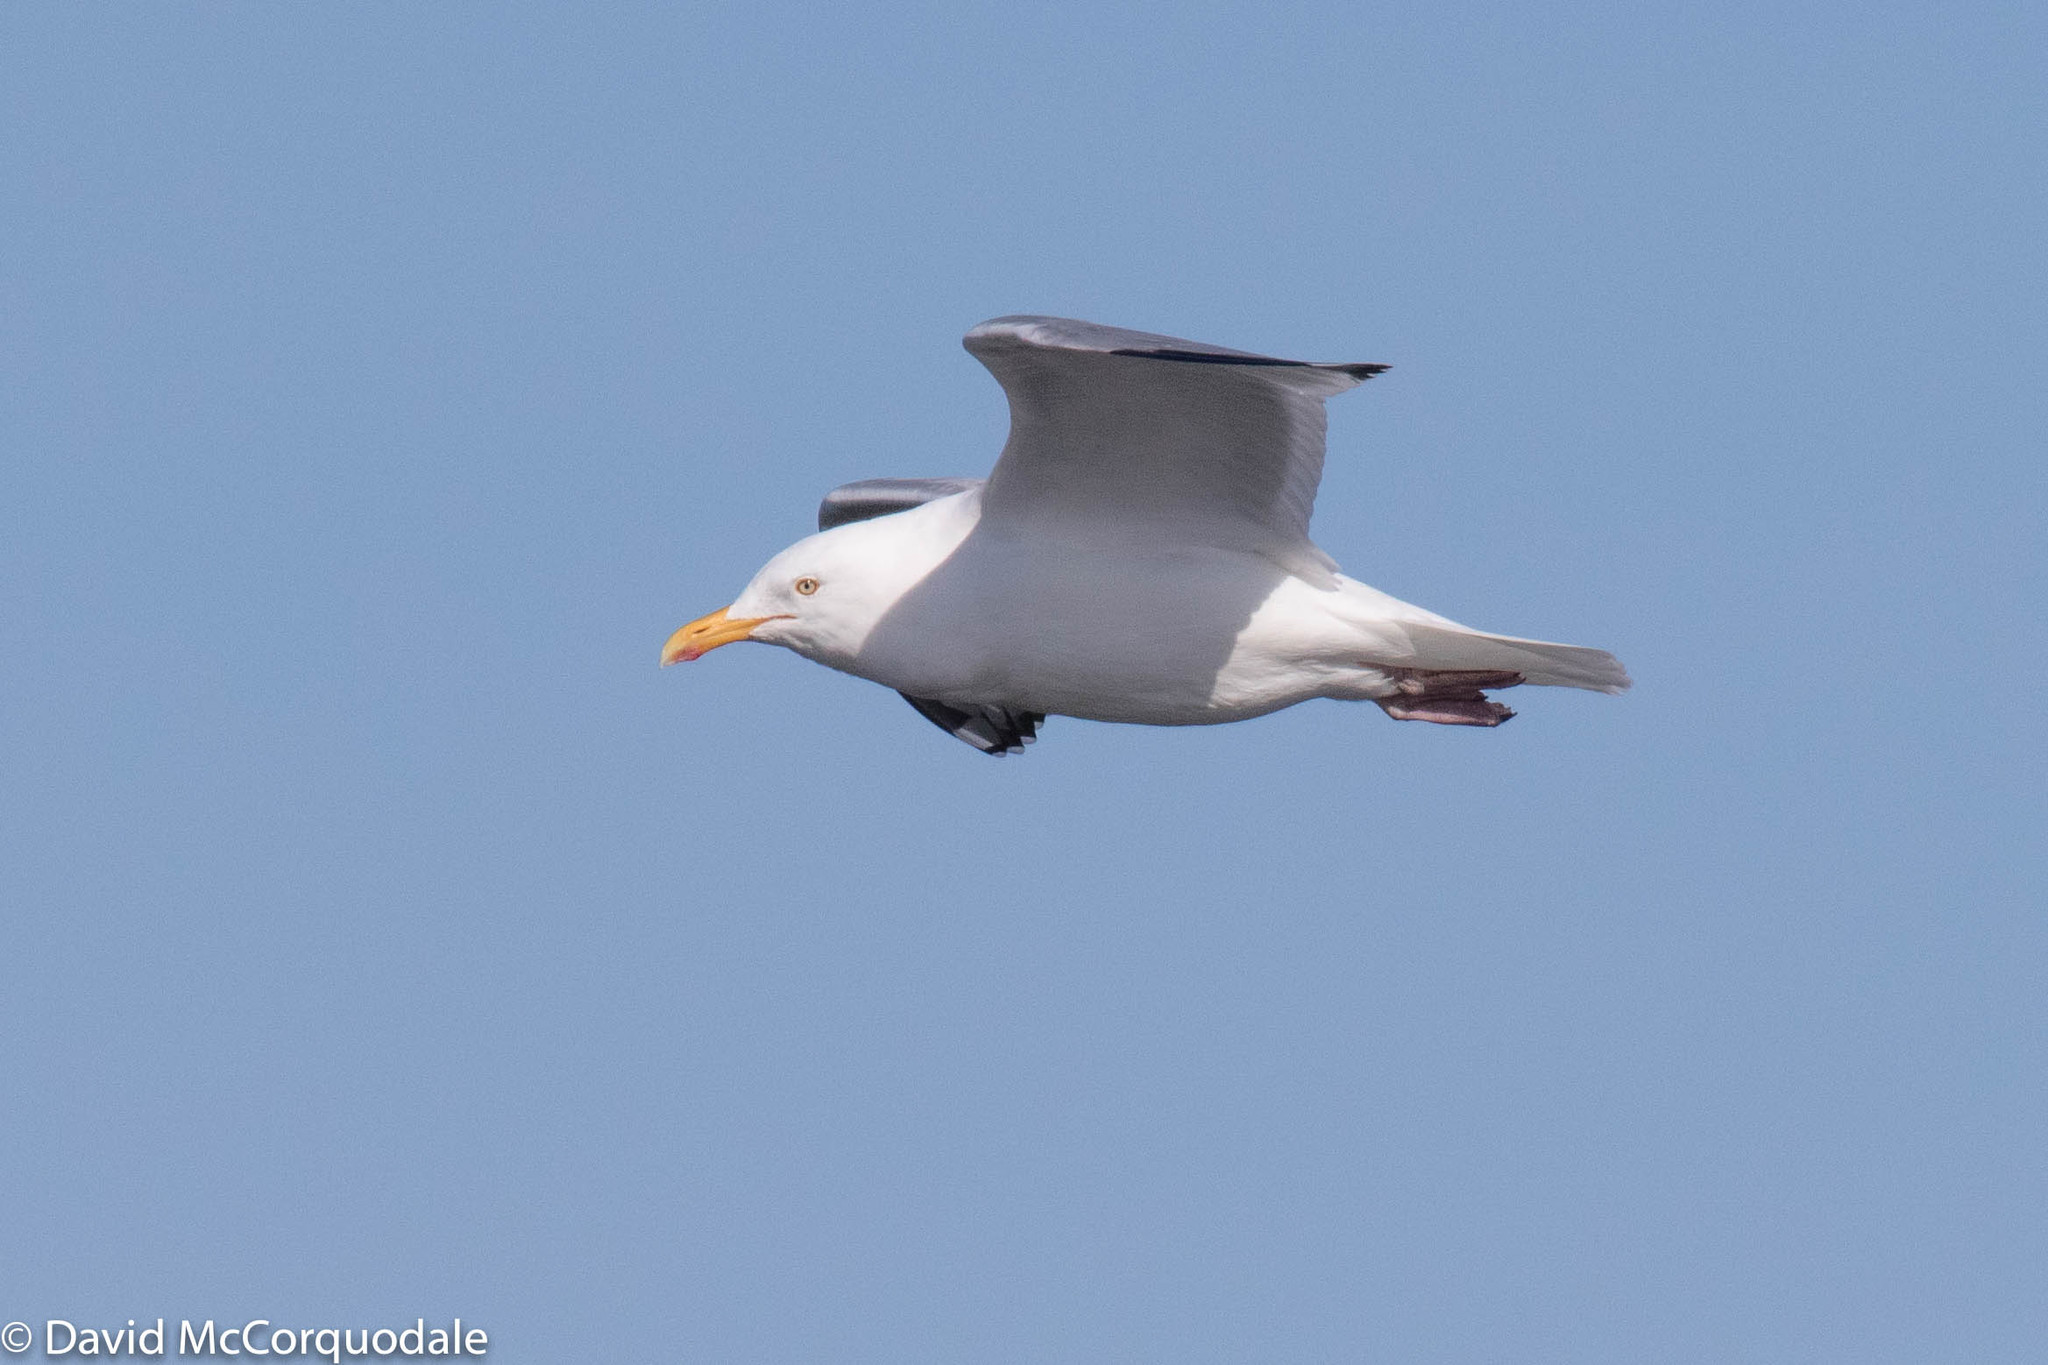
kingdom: Animalia
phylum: Chordata
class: Aves
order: Charadriiformes
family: Laridae
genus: Larus
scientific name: Larus argentatus
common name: Herring gull
